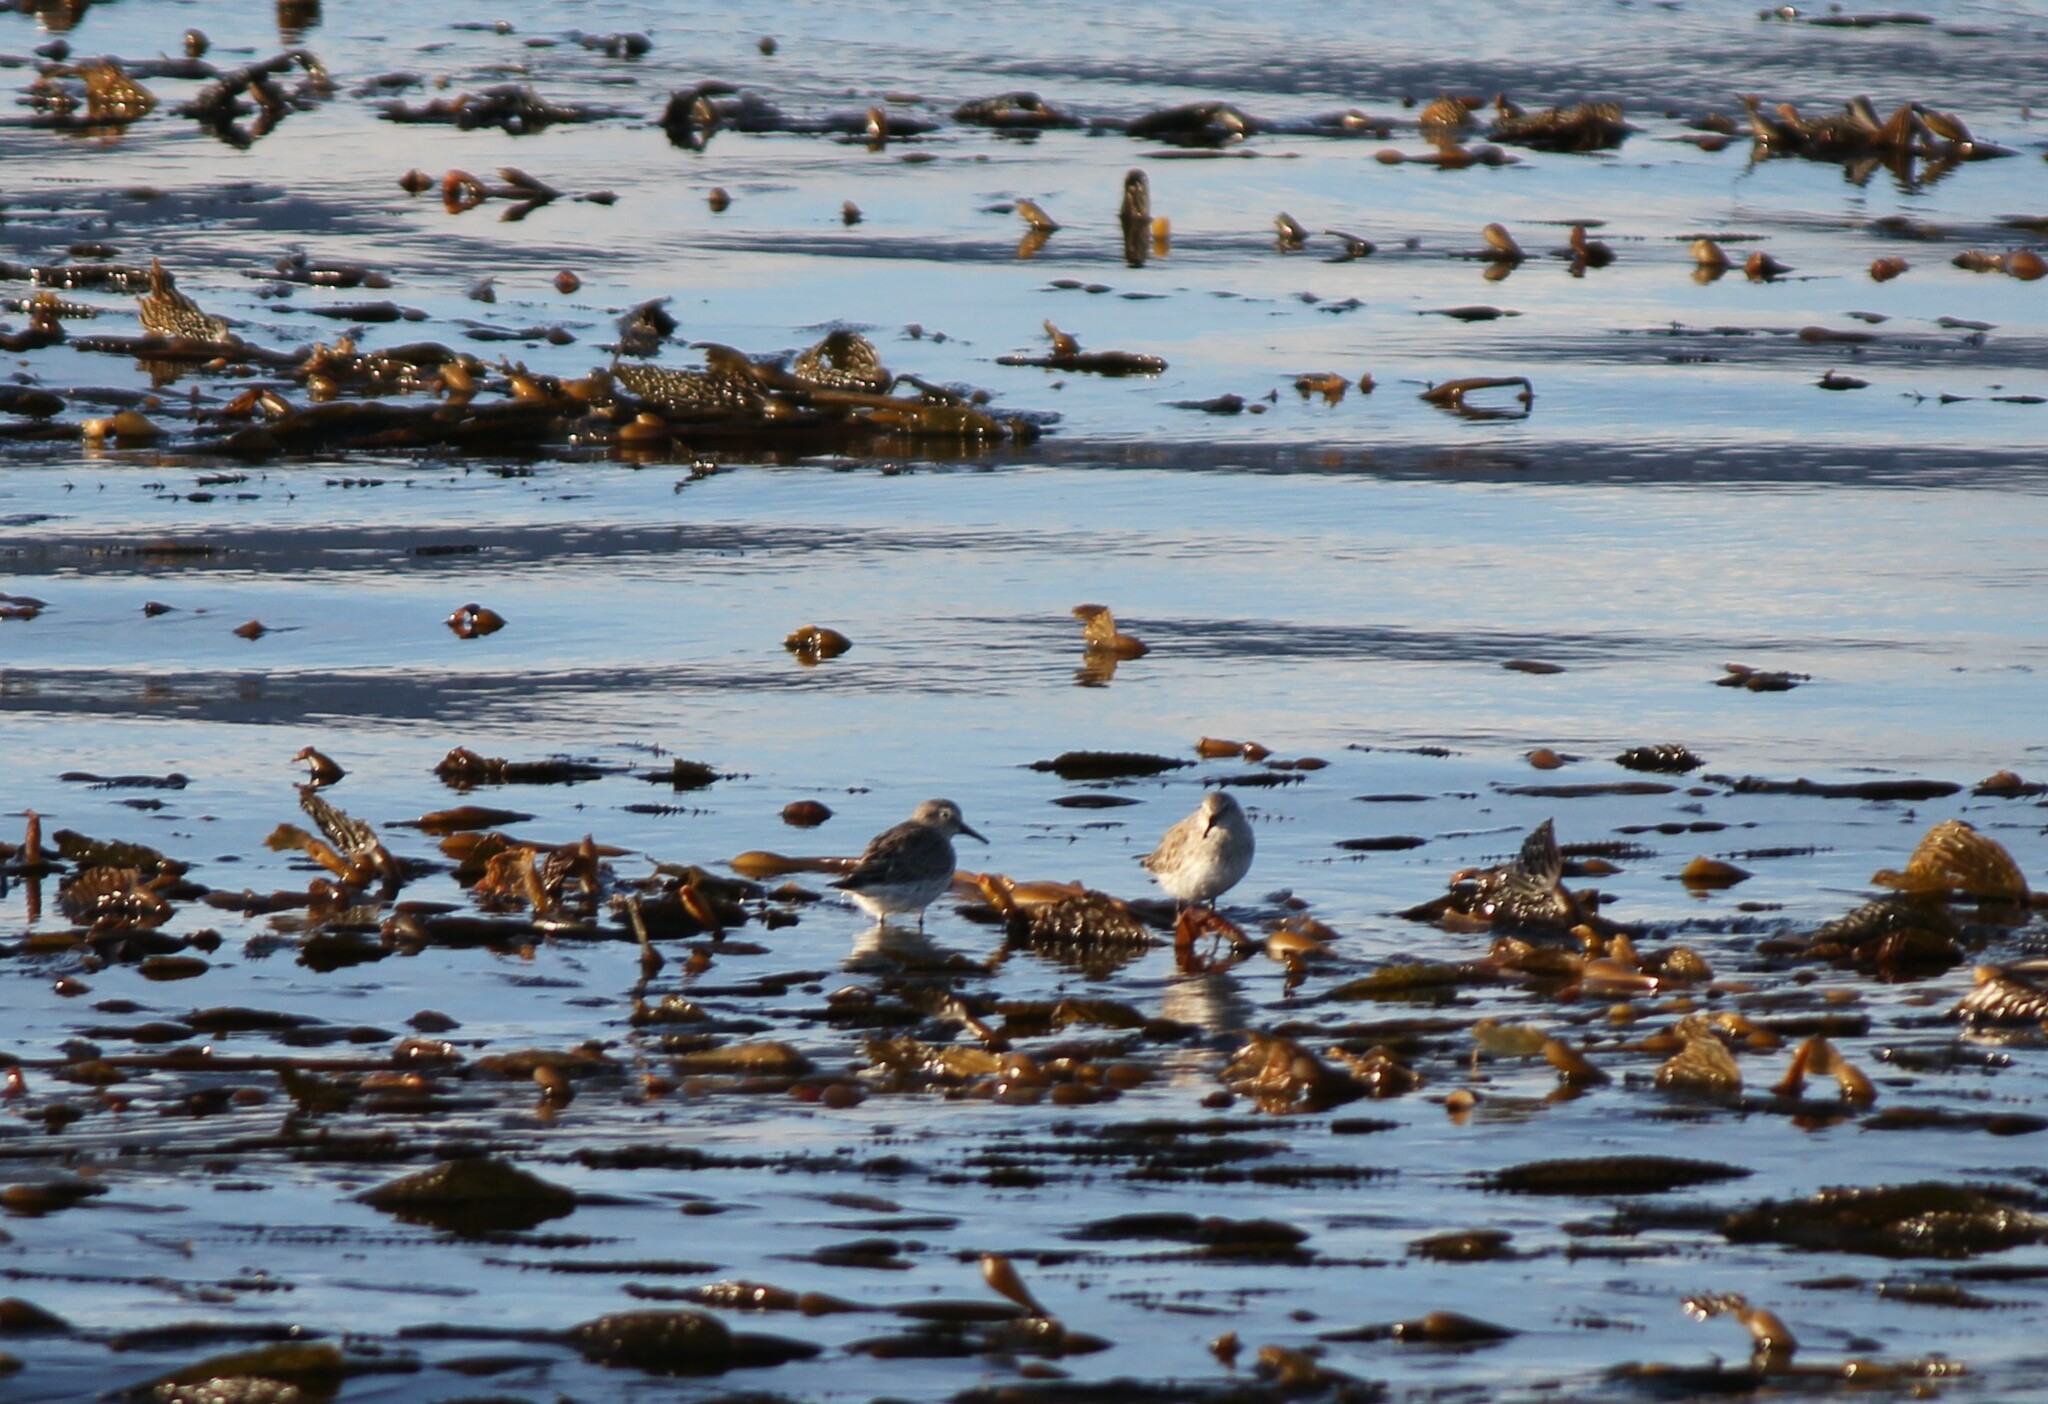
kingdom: Animalia
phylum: Chordata
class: Aves
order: Charadriiformes
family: Scolopacidae
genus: Calidris
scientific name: Calidris fuscicollis
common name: White-rumped sandpiper
